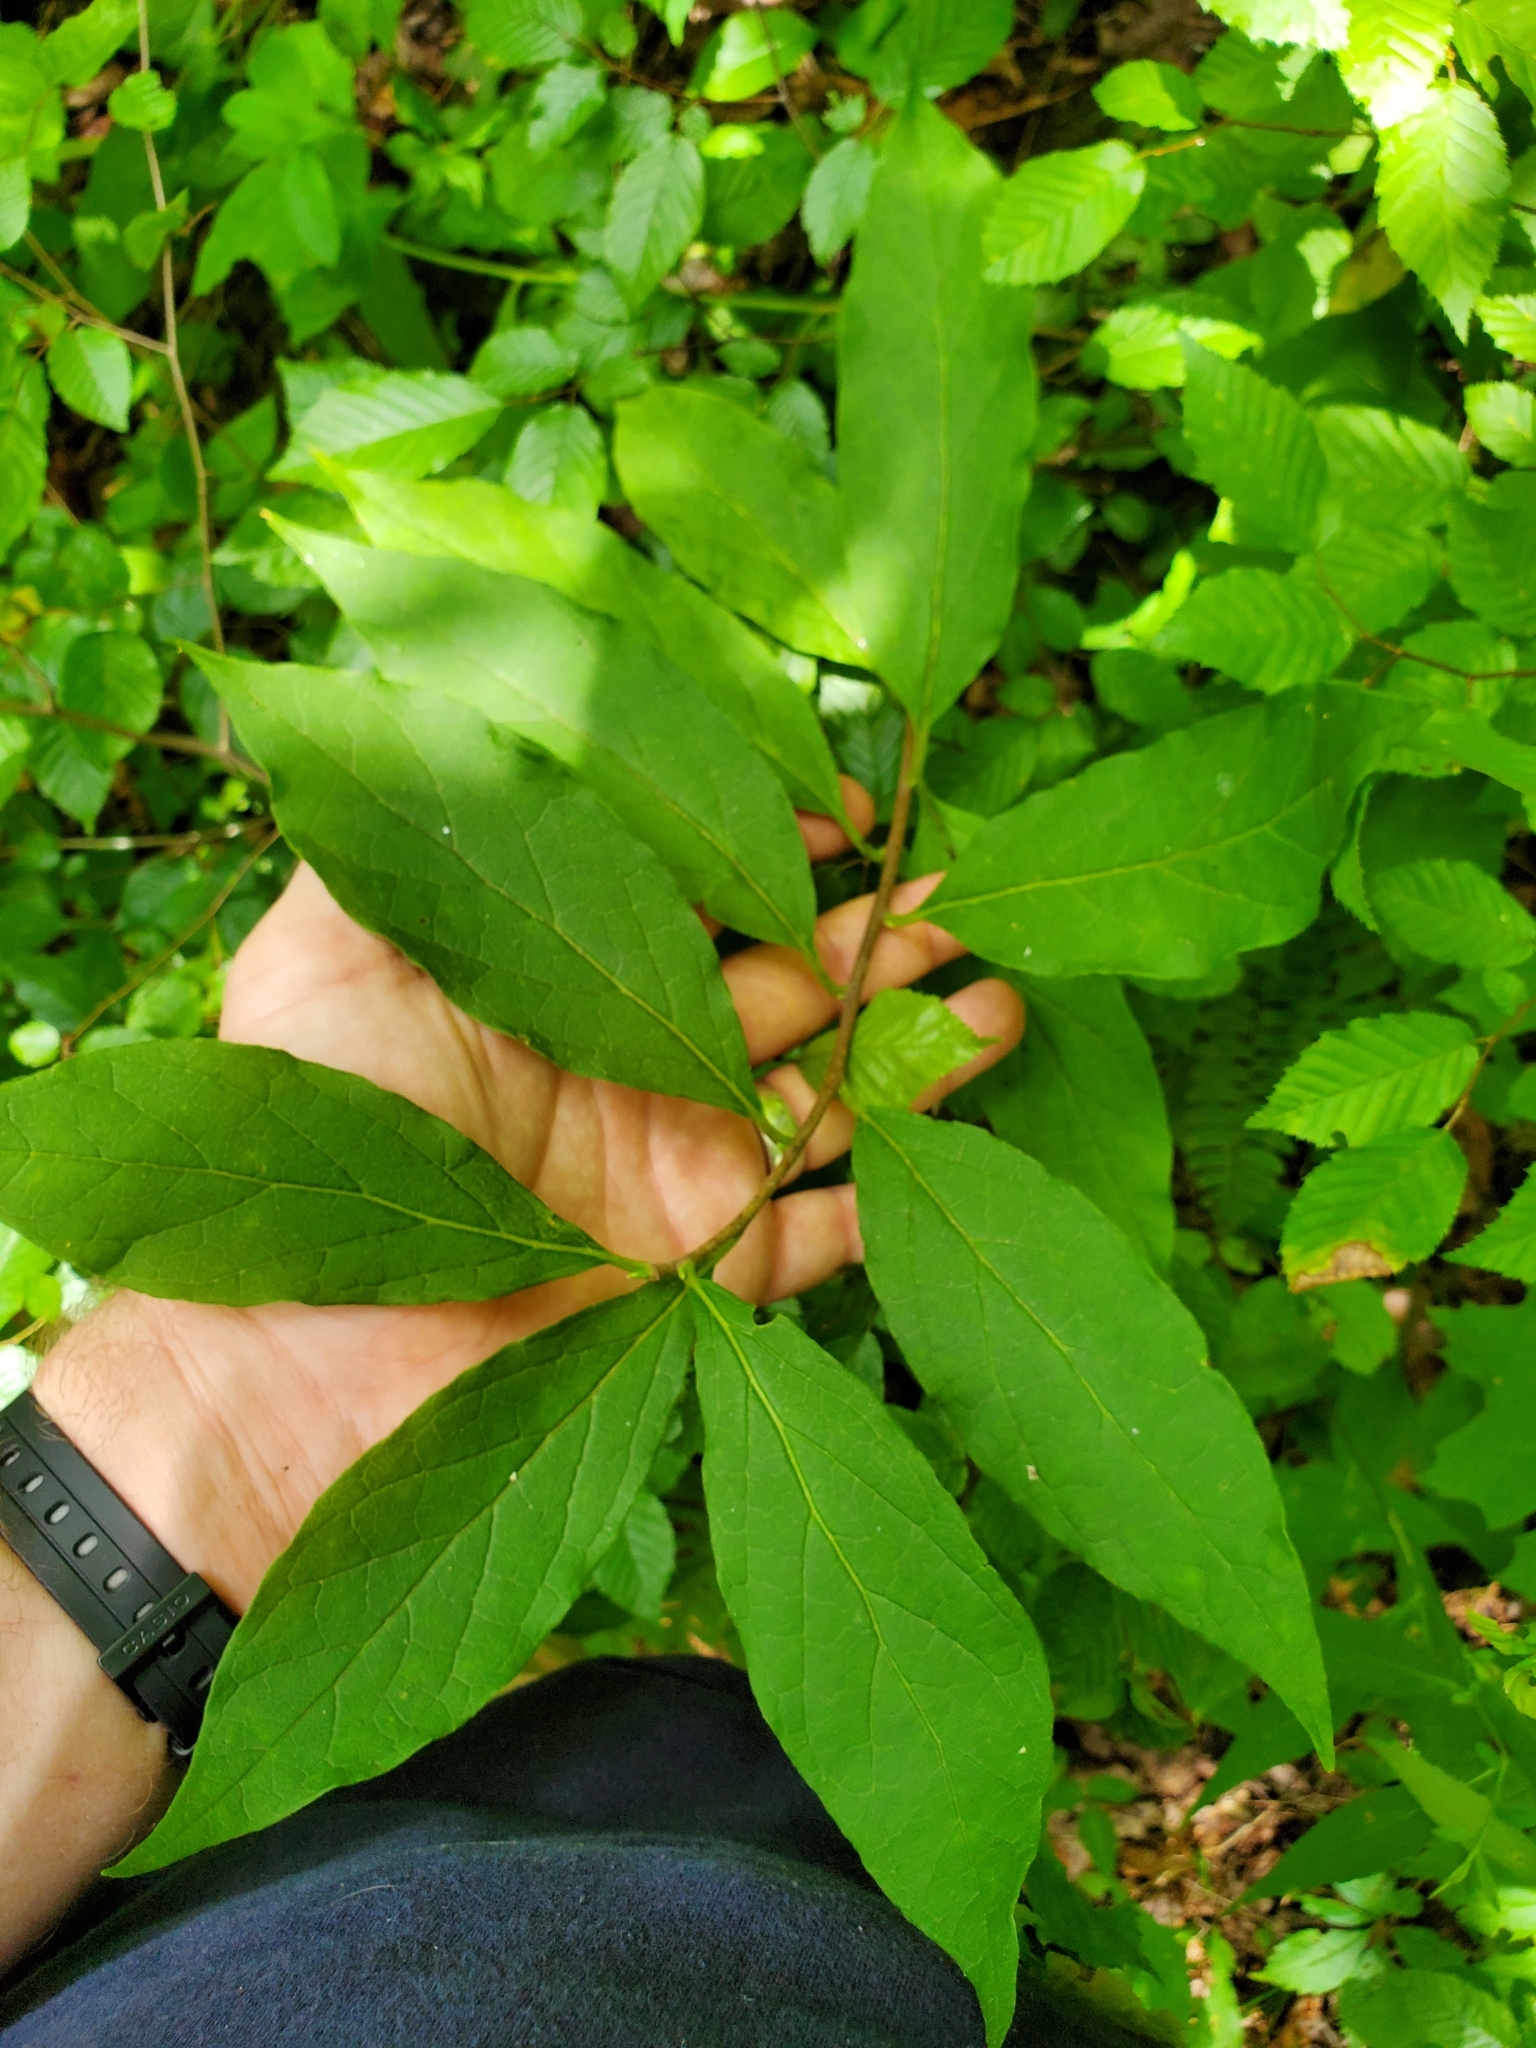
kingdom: Plantae
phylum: Tracheophyta
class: Magnoliopsida
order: Santalales
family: Cervantesiaceae
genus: Pyrularia
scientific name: Pyrularia pubera
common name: Oilnut
